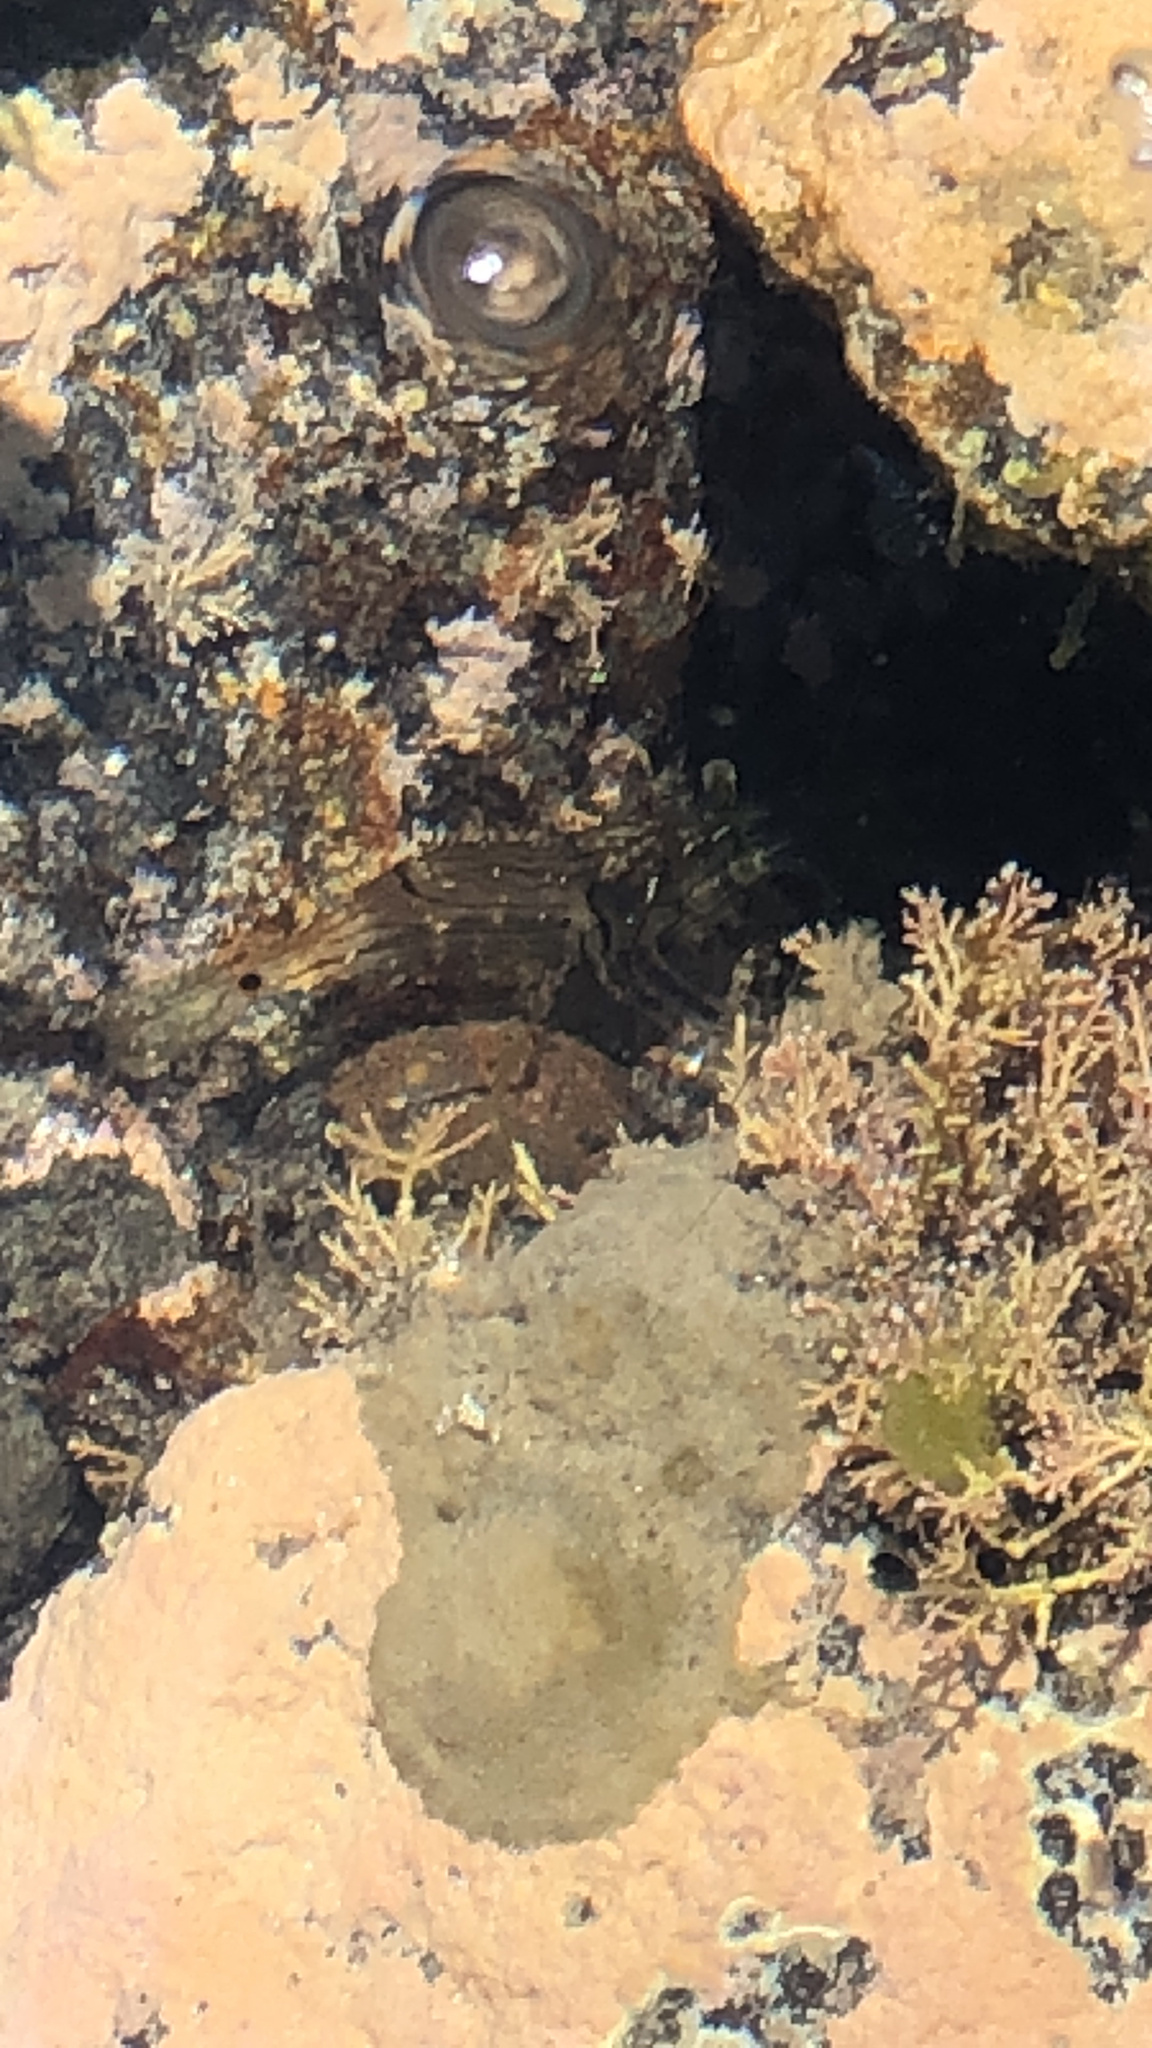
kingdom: Animalia
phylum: Arthropoda
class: Malacostraca
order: Decapoda
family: Palaemonidae
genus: Palaemon
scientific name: Palaemon affinis
